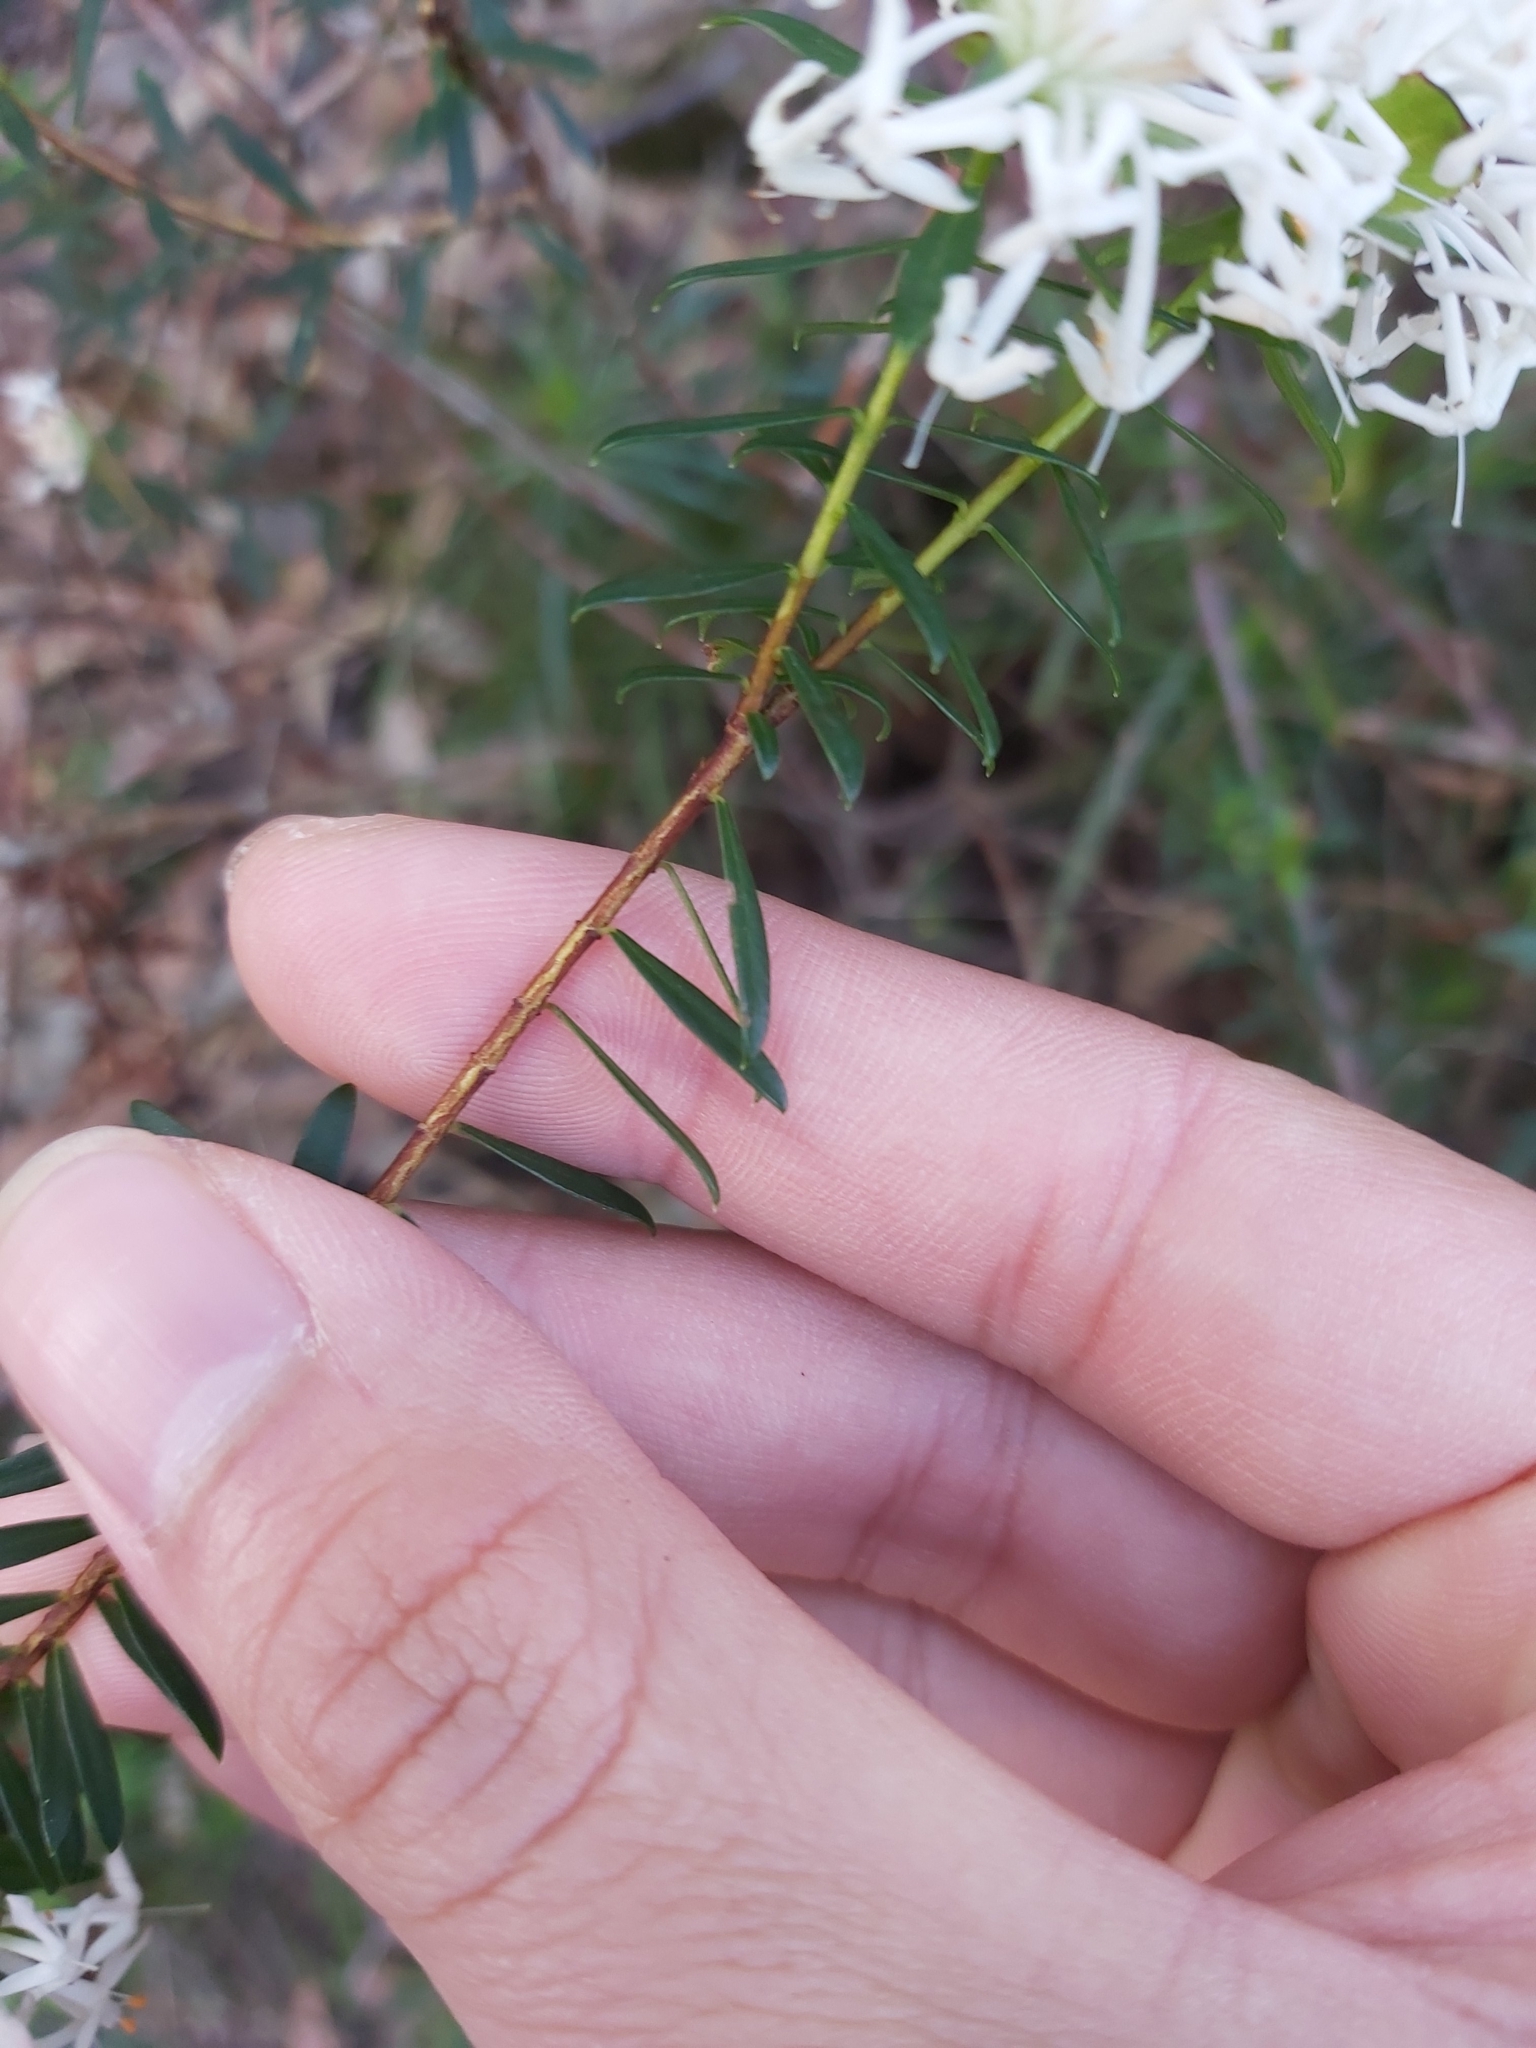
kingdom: Plantae
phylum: Tracheophyta
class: Magnoliopsida
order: Malvales
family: Thymelaeaceae
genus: Pimelea
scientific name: Pimelea linifolia
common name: Queen-of-the-bush
